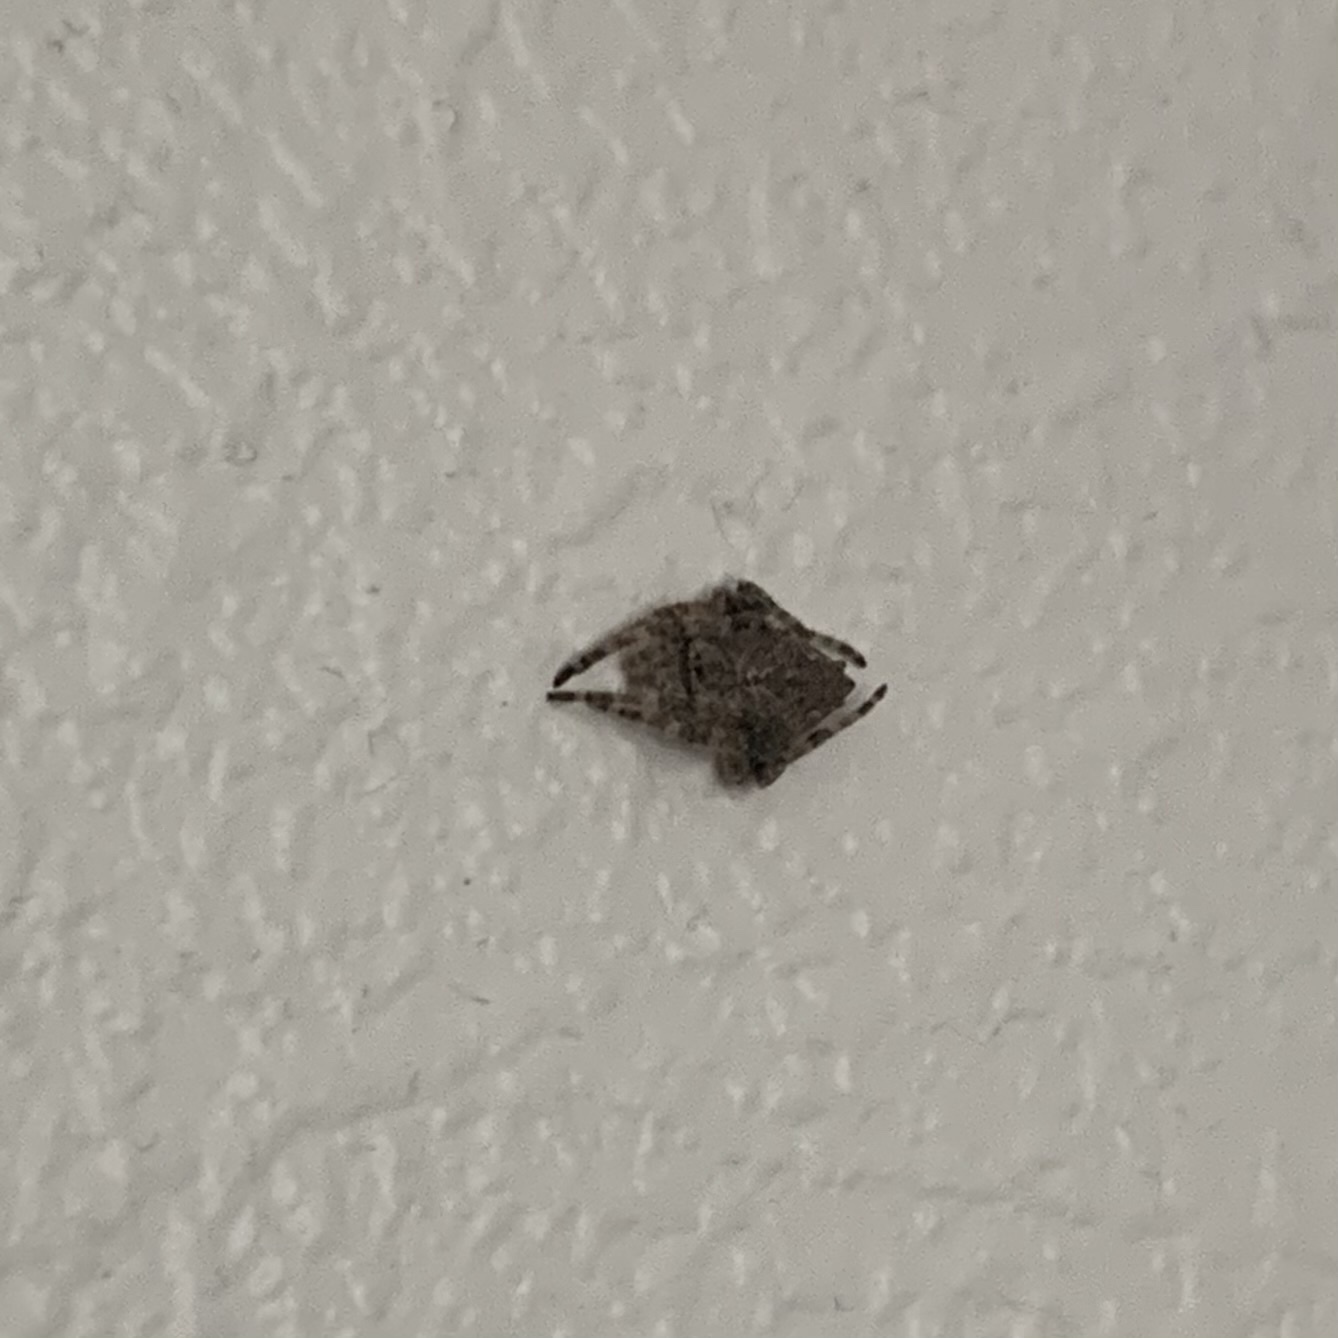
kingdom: Animalia
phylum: Arthropoda
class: Arachnida
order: Araneae
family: Araneidae
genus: Eriophora
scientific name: Eriophora pustulosa
